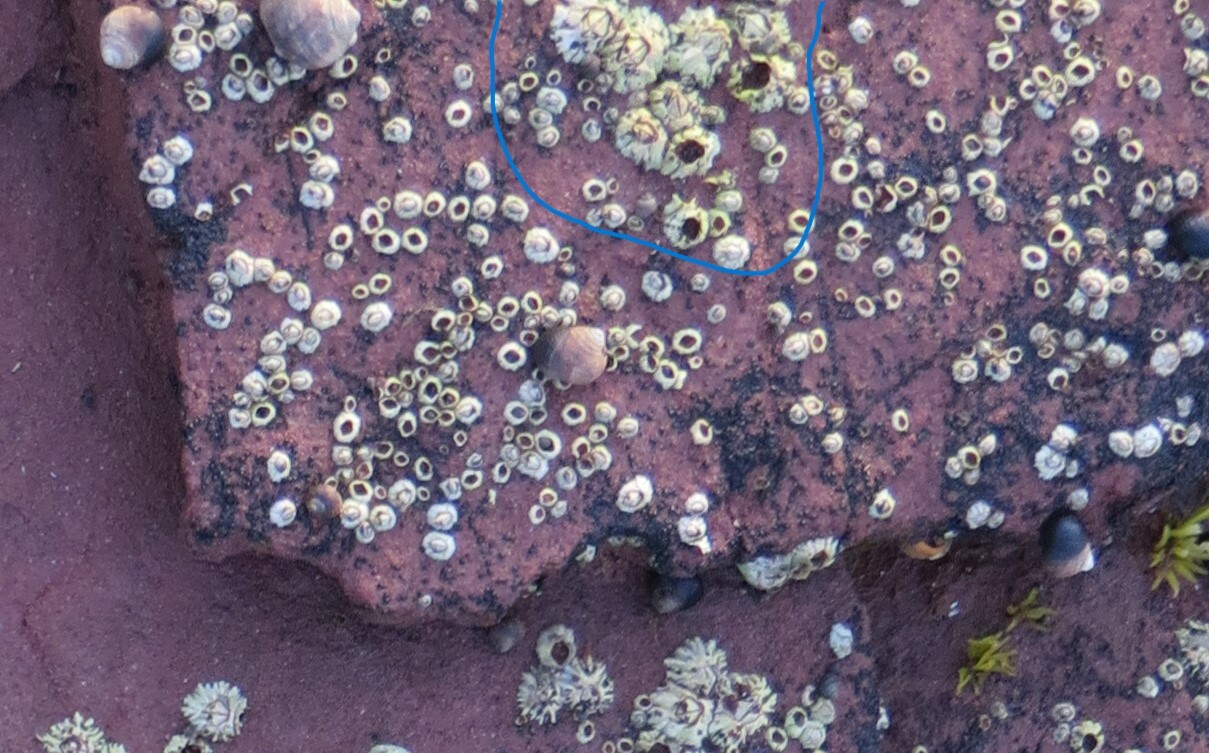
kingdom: Animalia
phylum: Arthropoda
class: Maxillopoda
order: Sessilia
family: Archaeobalanidae
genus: Semibalanus
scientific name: Semibalanus balanoides
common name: Acorn barnacle
